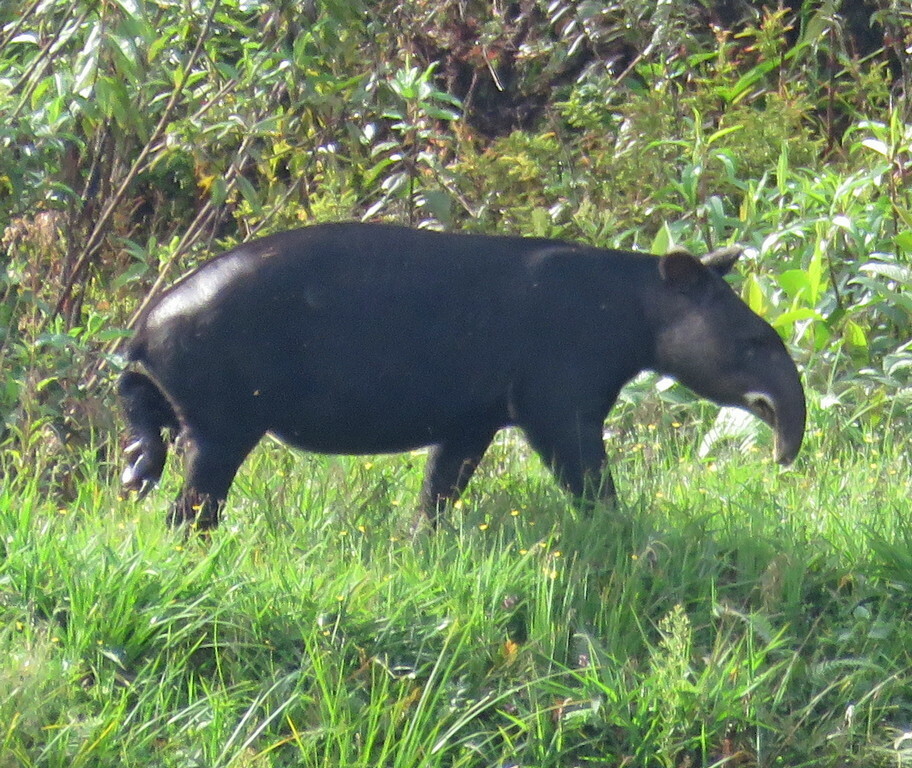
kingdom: Animalia
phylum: Chordata
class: Mammalia
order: Perissodactyla
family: Tapiridae
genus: Tapirus
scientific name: Tapirus pinchaque
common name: Mountain tapir
